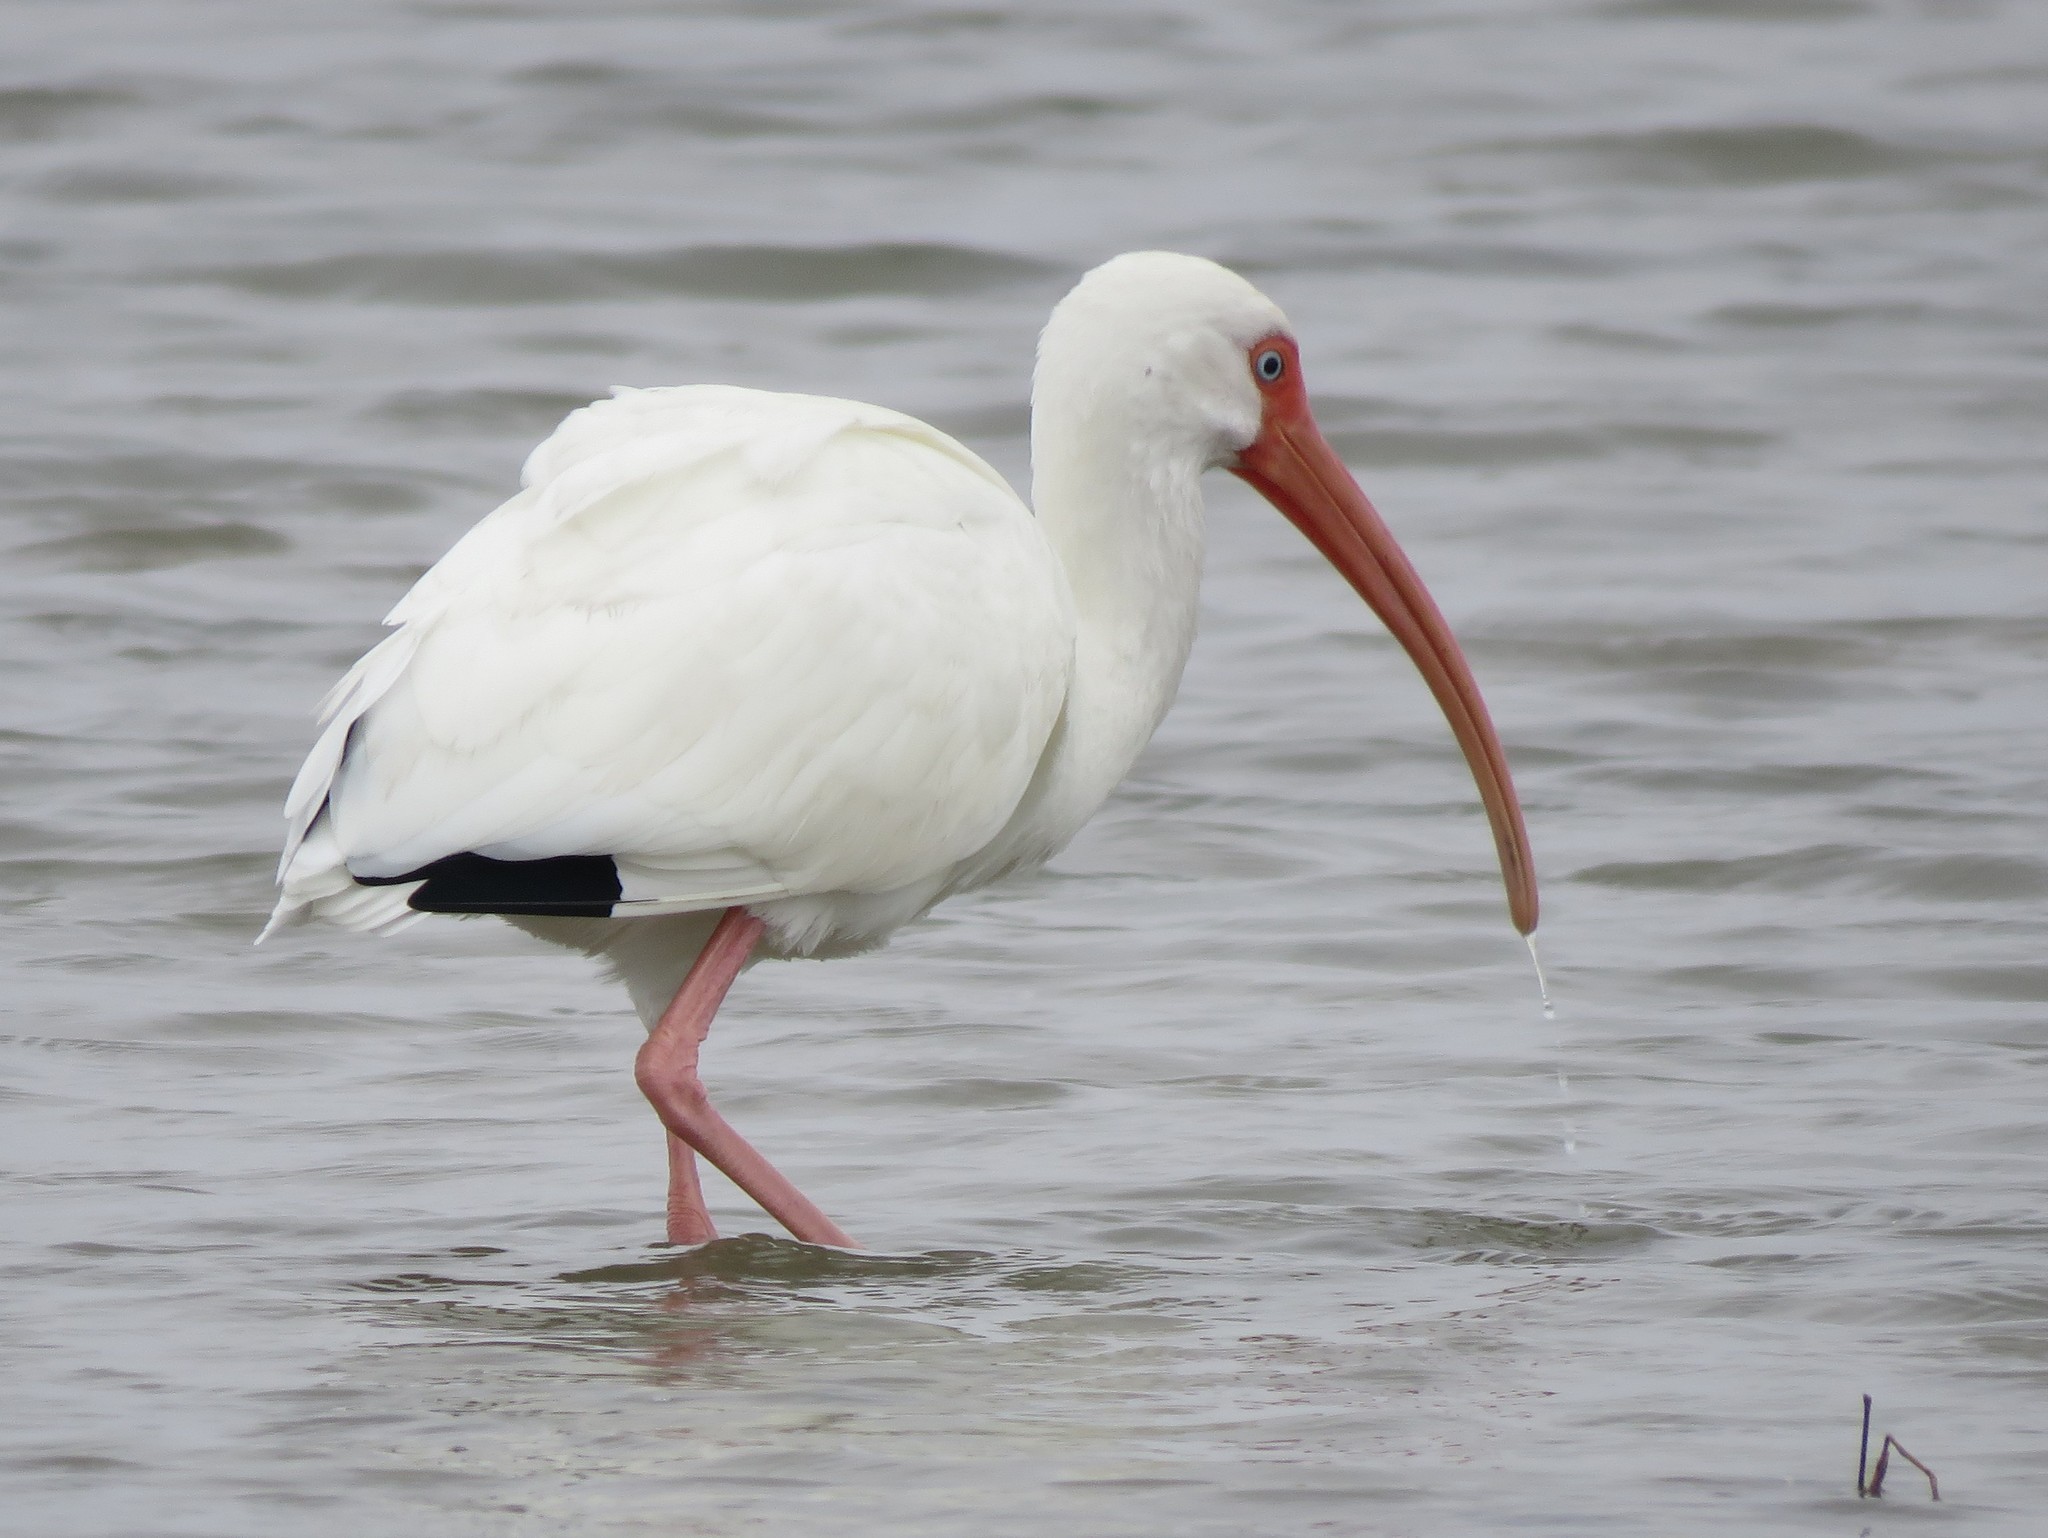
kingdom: Animalia
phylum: Chordata
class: Aves
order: Pelecaniformes
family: Threskiornithidae
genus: Eudocimus
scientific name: Eudocimus albus
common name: White ibis
